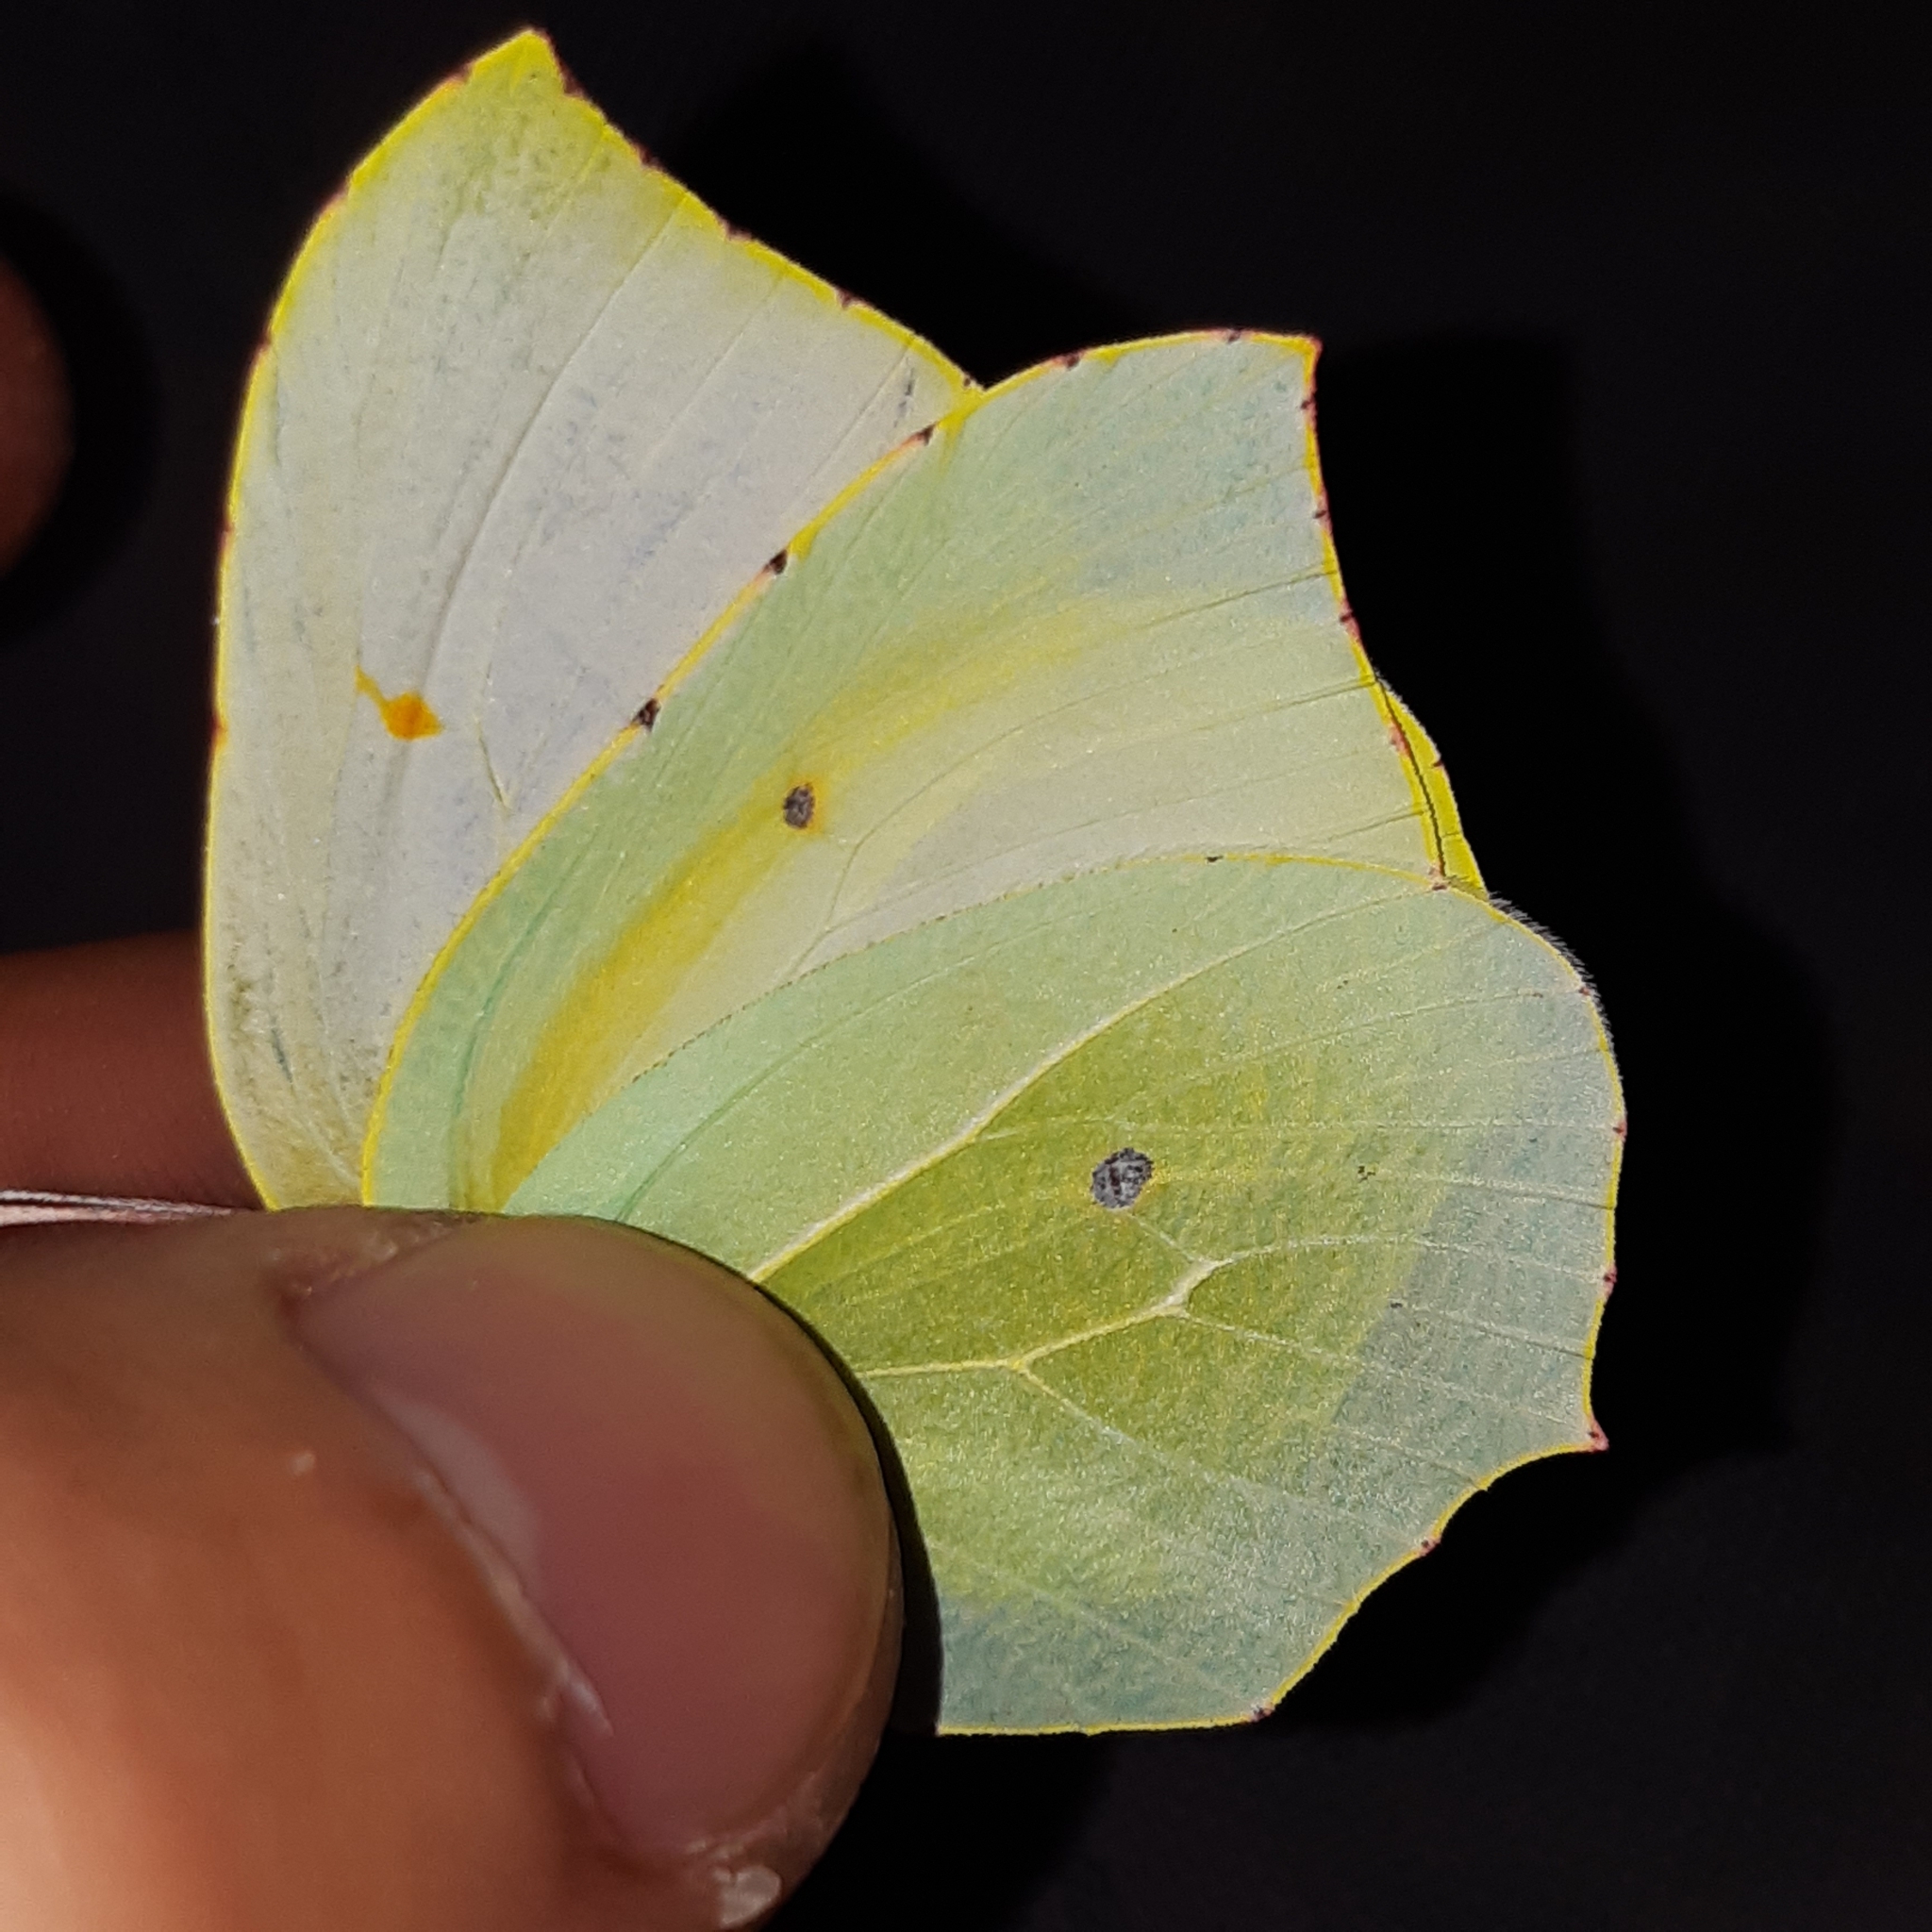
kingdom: Animalia
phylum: Arthropoda
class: Insecta
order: Lepidoptera
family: Pieridae
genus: Gonepteryx
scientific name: Gonepteryx cleopatra
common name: Cleopatra
